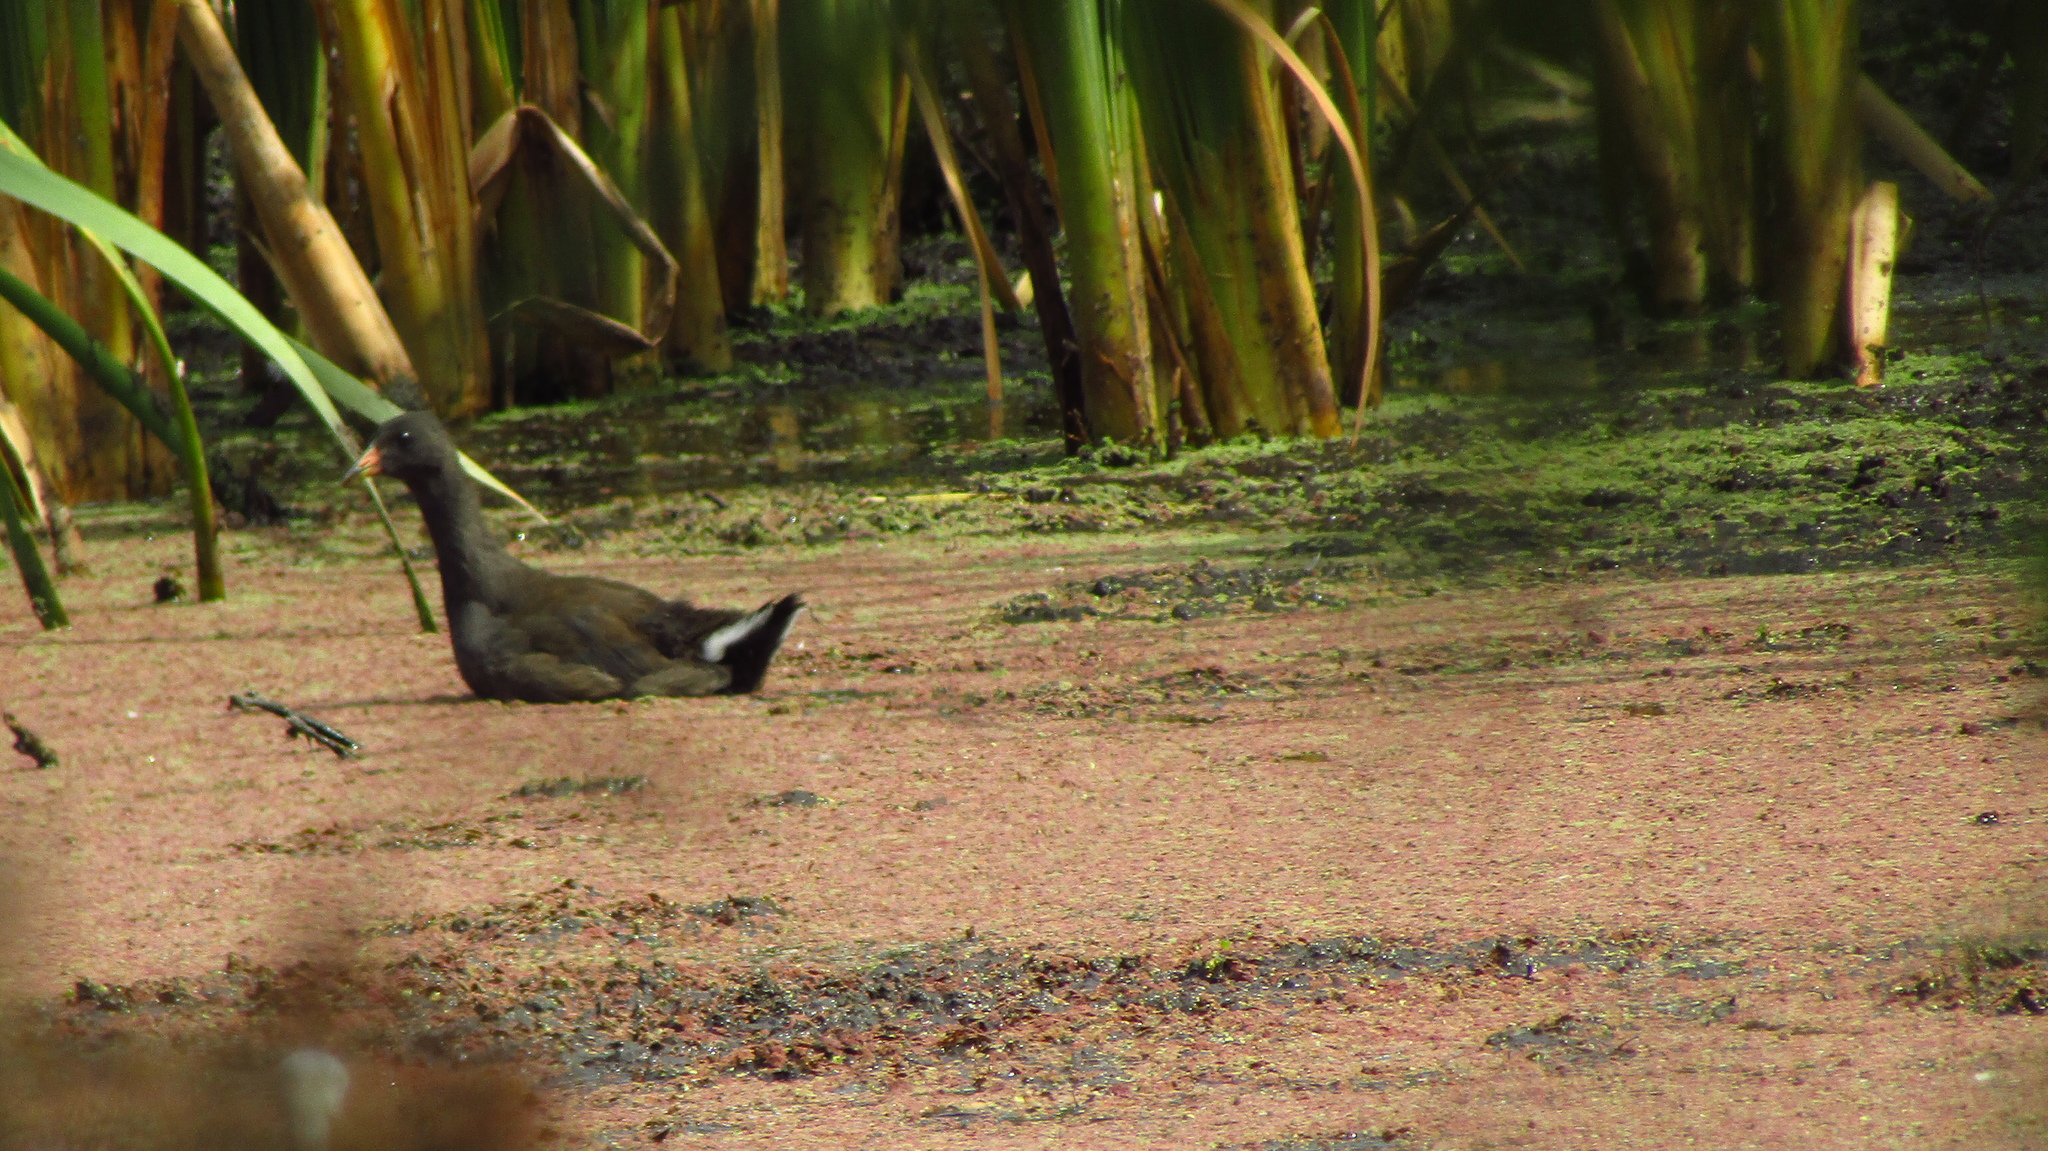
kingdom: Animalia
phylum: Chordata
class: Aves
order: Gruiformes
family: Rallidae
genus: Gallinula
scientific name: Gallinula tenebrosa
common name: Dusky moorhen
